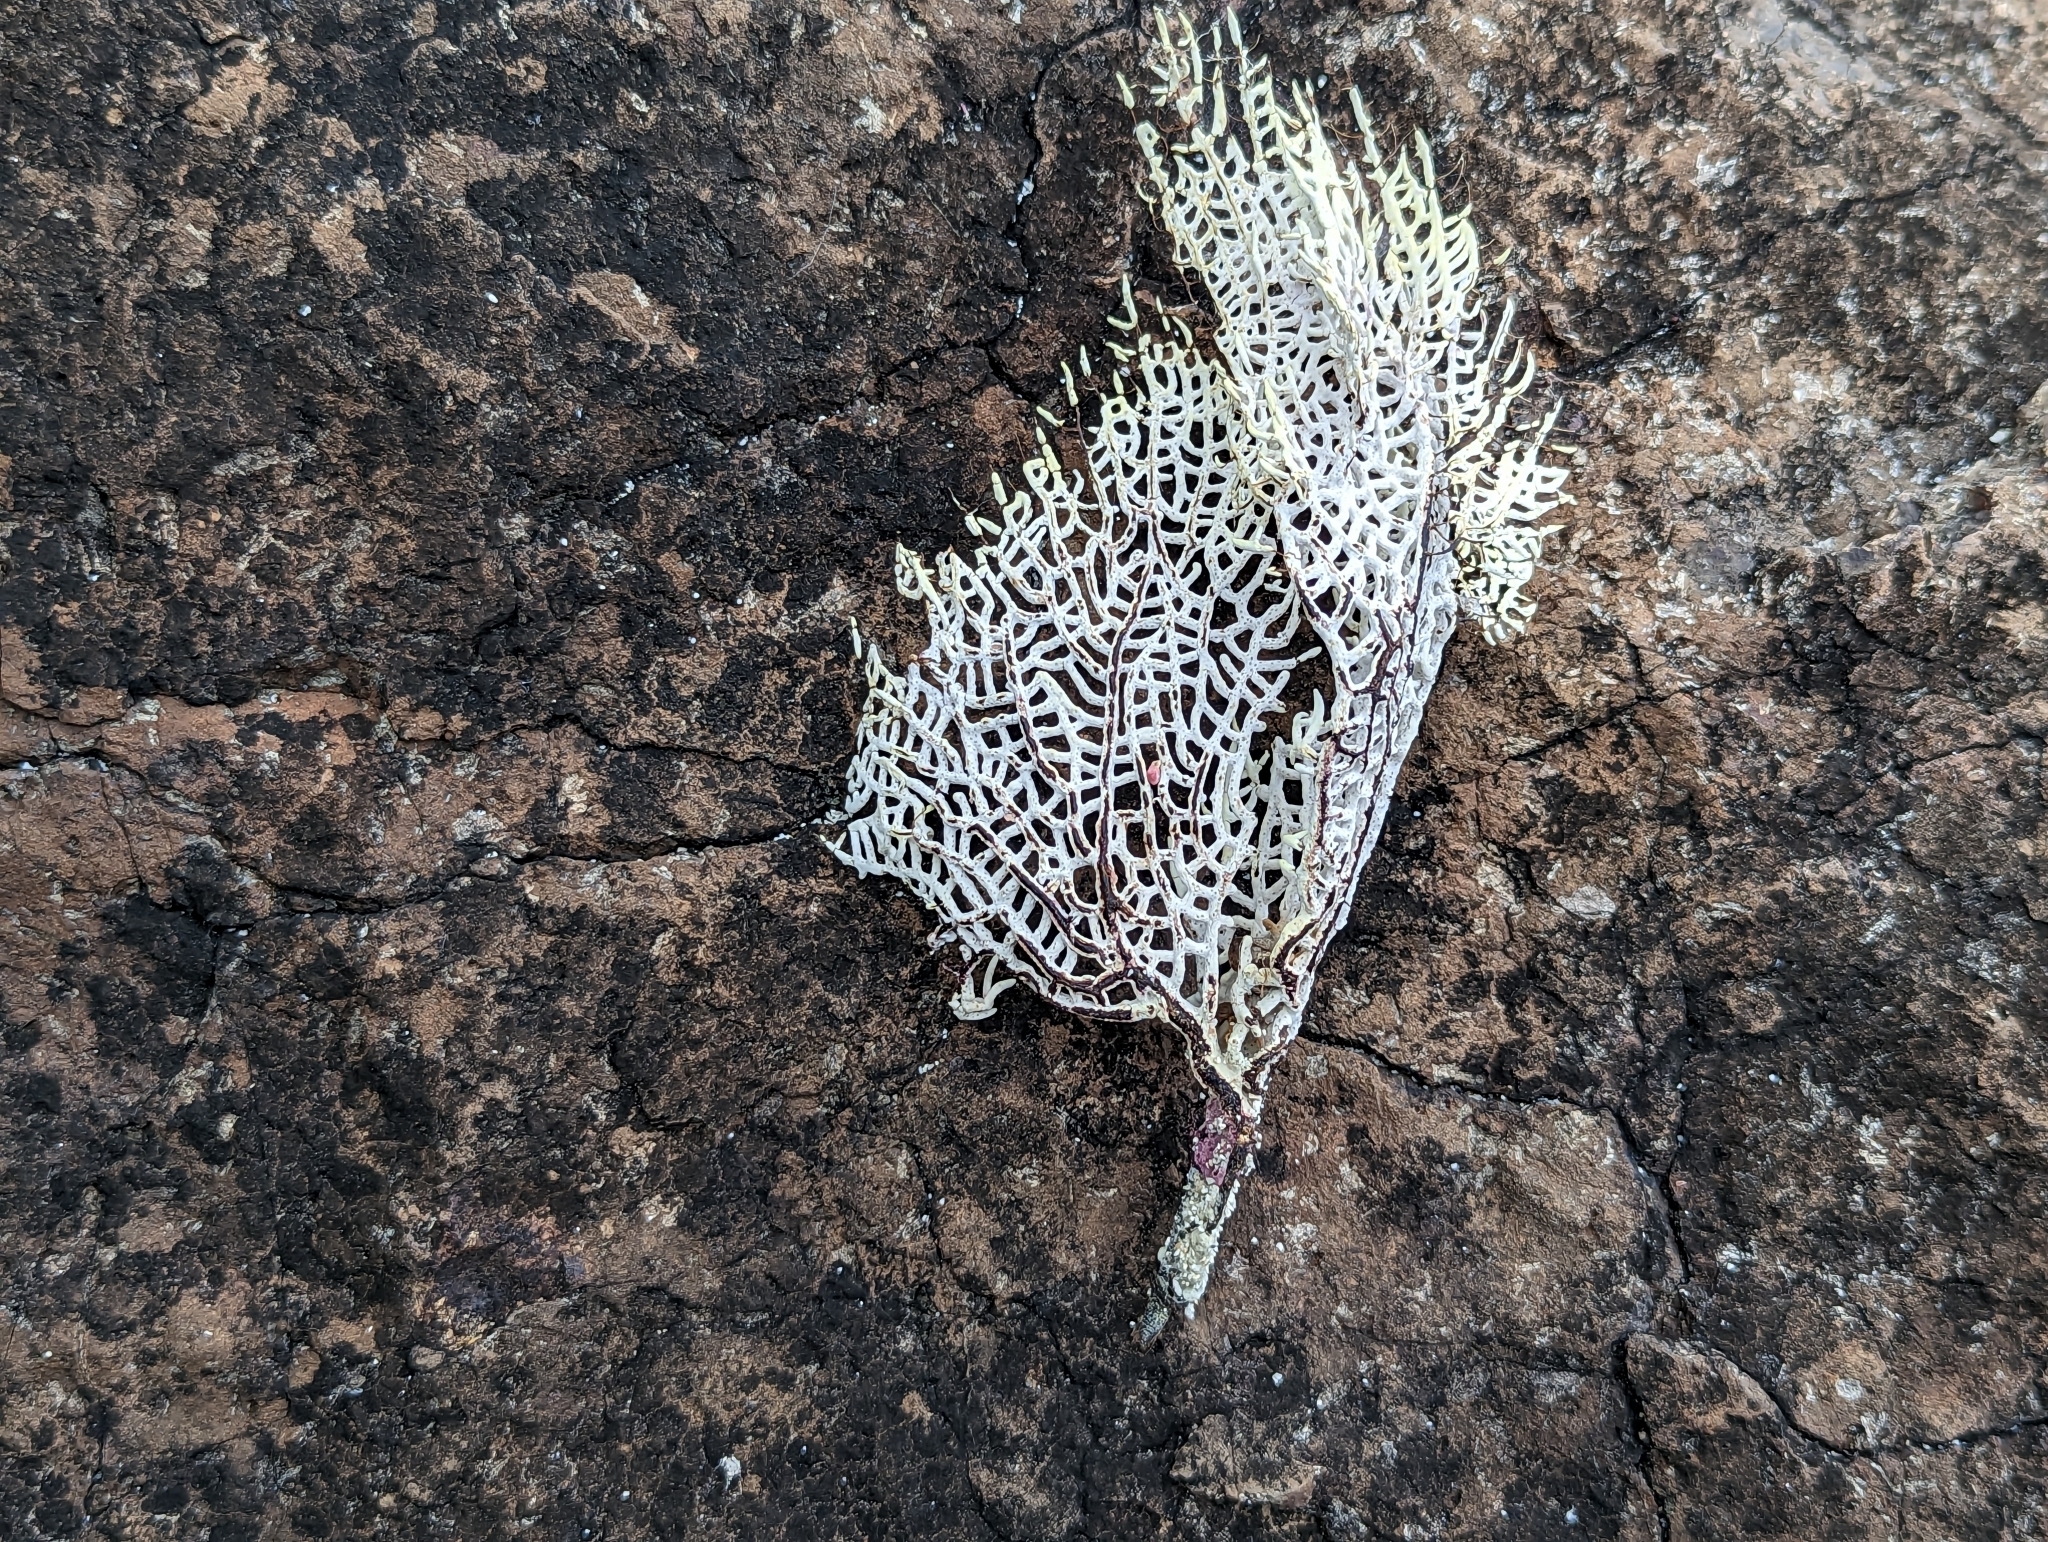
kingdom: Animalia
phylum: Cnidaria
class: Anthozoa
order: Malacalcyonacea
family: Gorgoniidae
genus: Gorgonia
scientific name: Gorgonia ventalina
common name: Common sea fan
